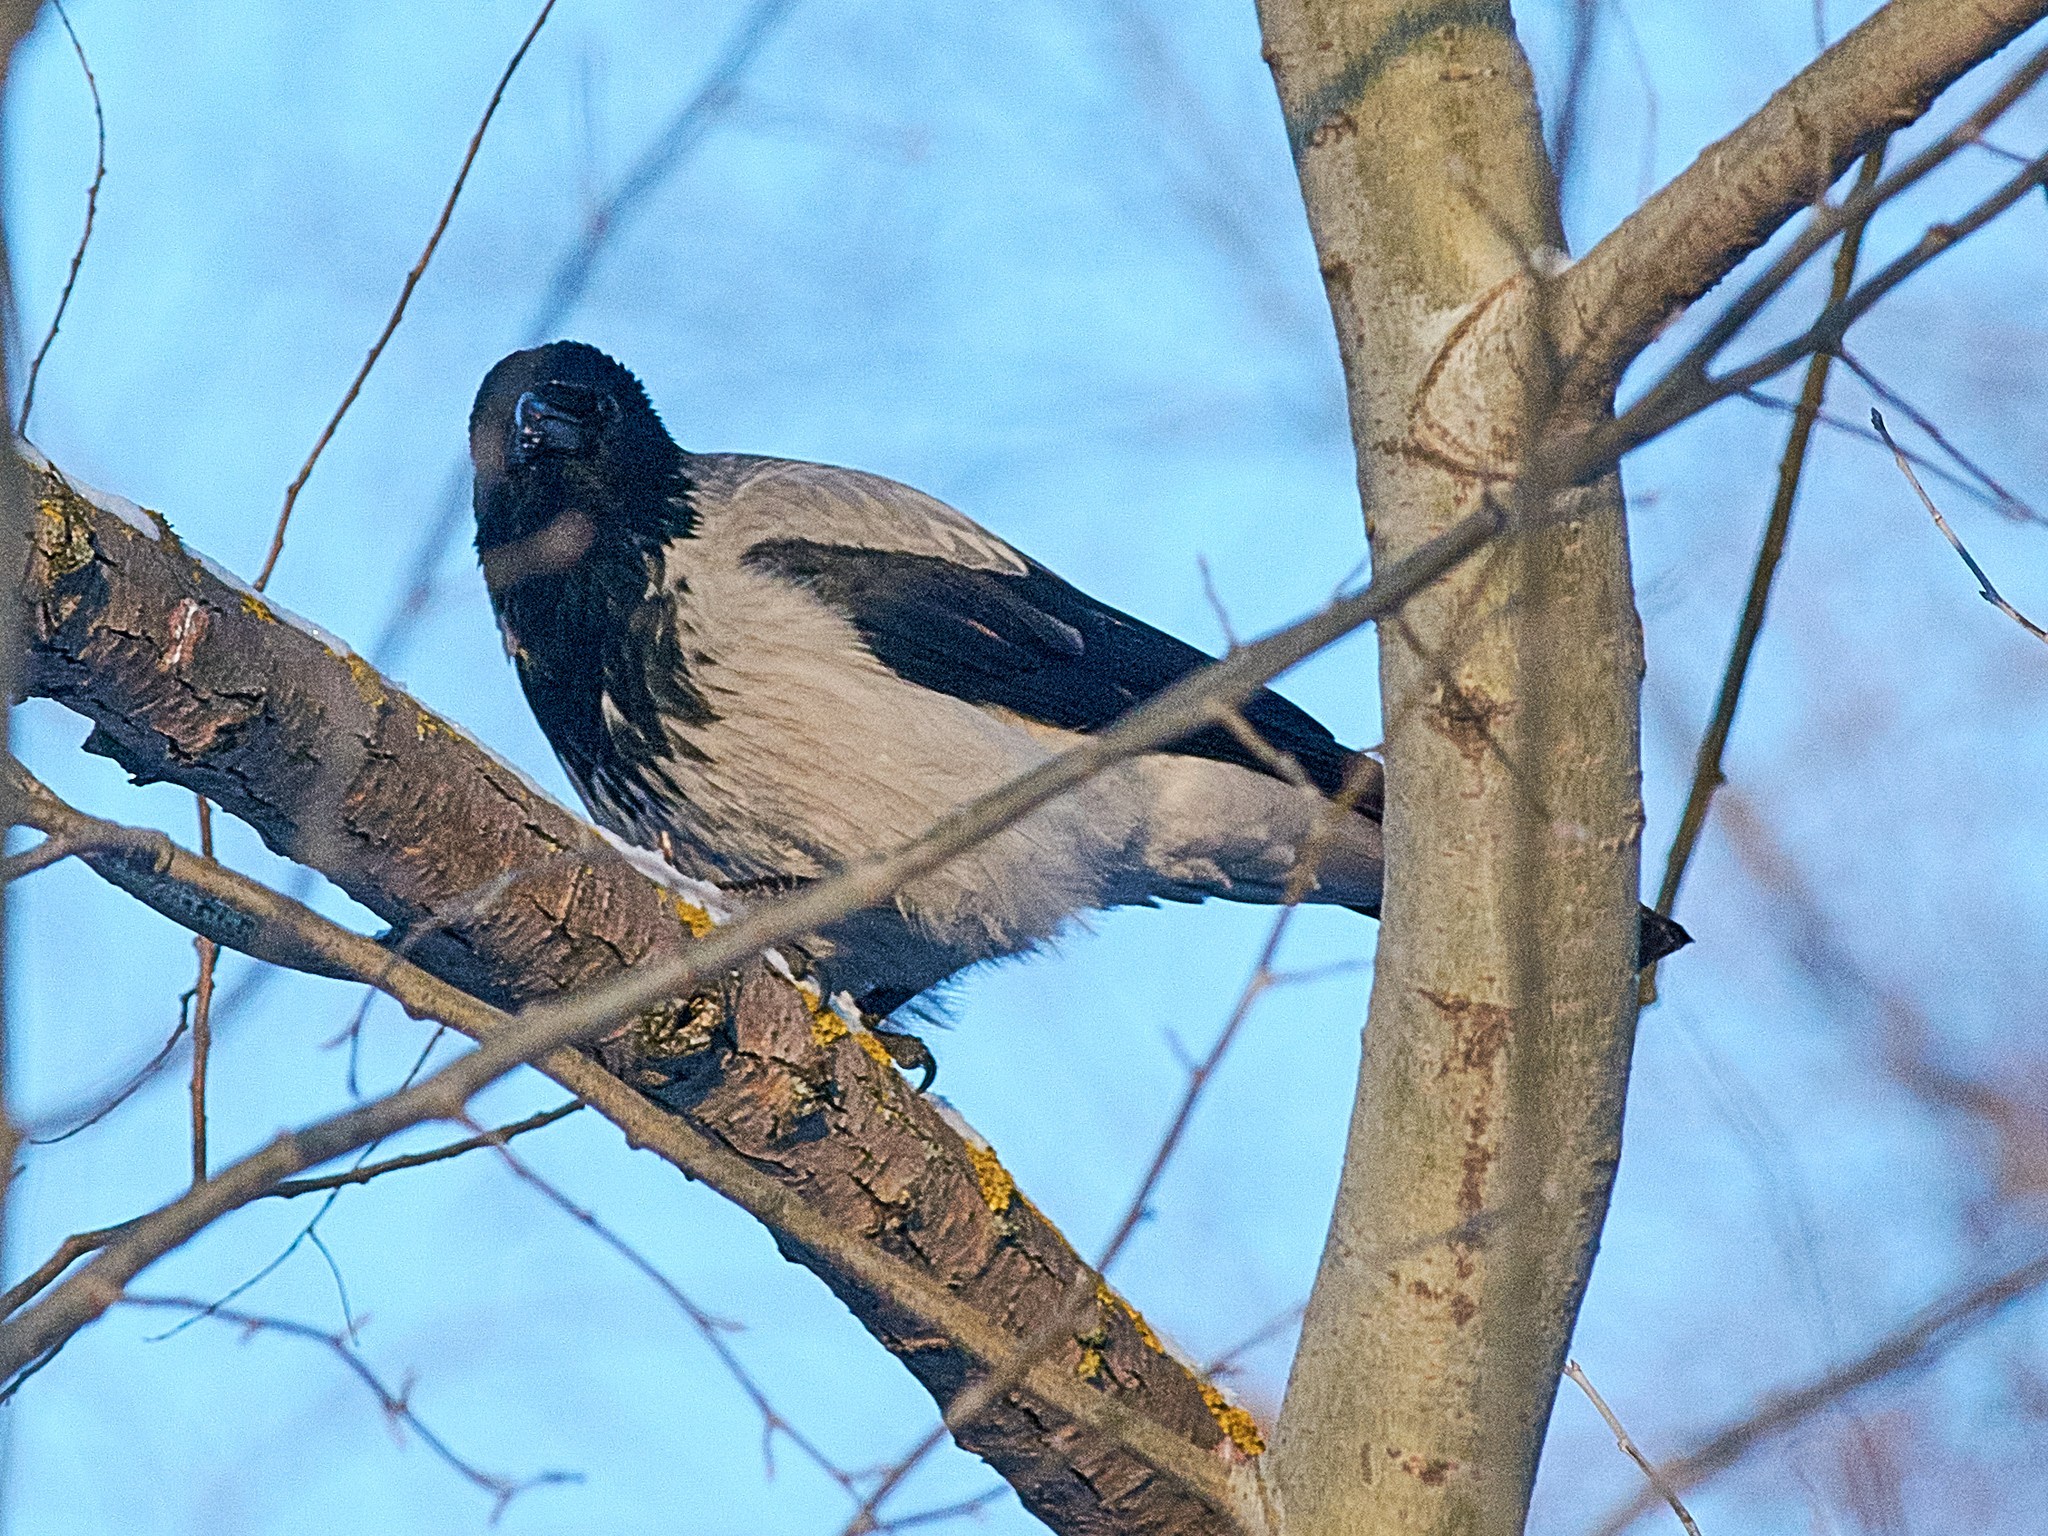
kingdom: Animalia
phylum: Chordata
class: Aves
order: Passeriformes
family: Corvidae
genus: Corvus
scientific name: Corvus cornix
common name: Hooded crow
